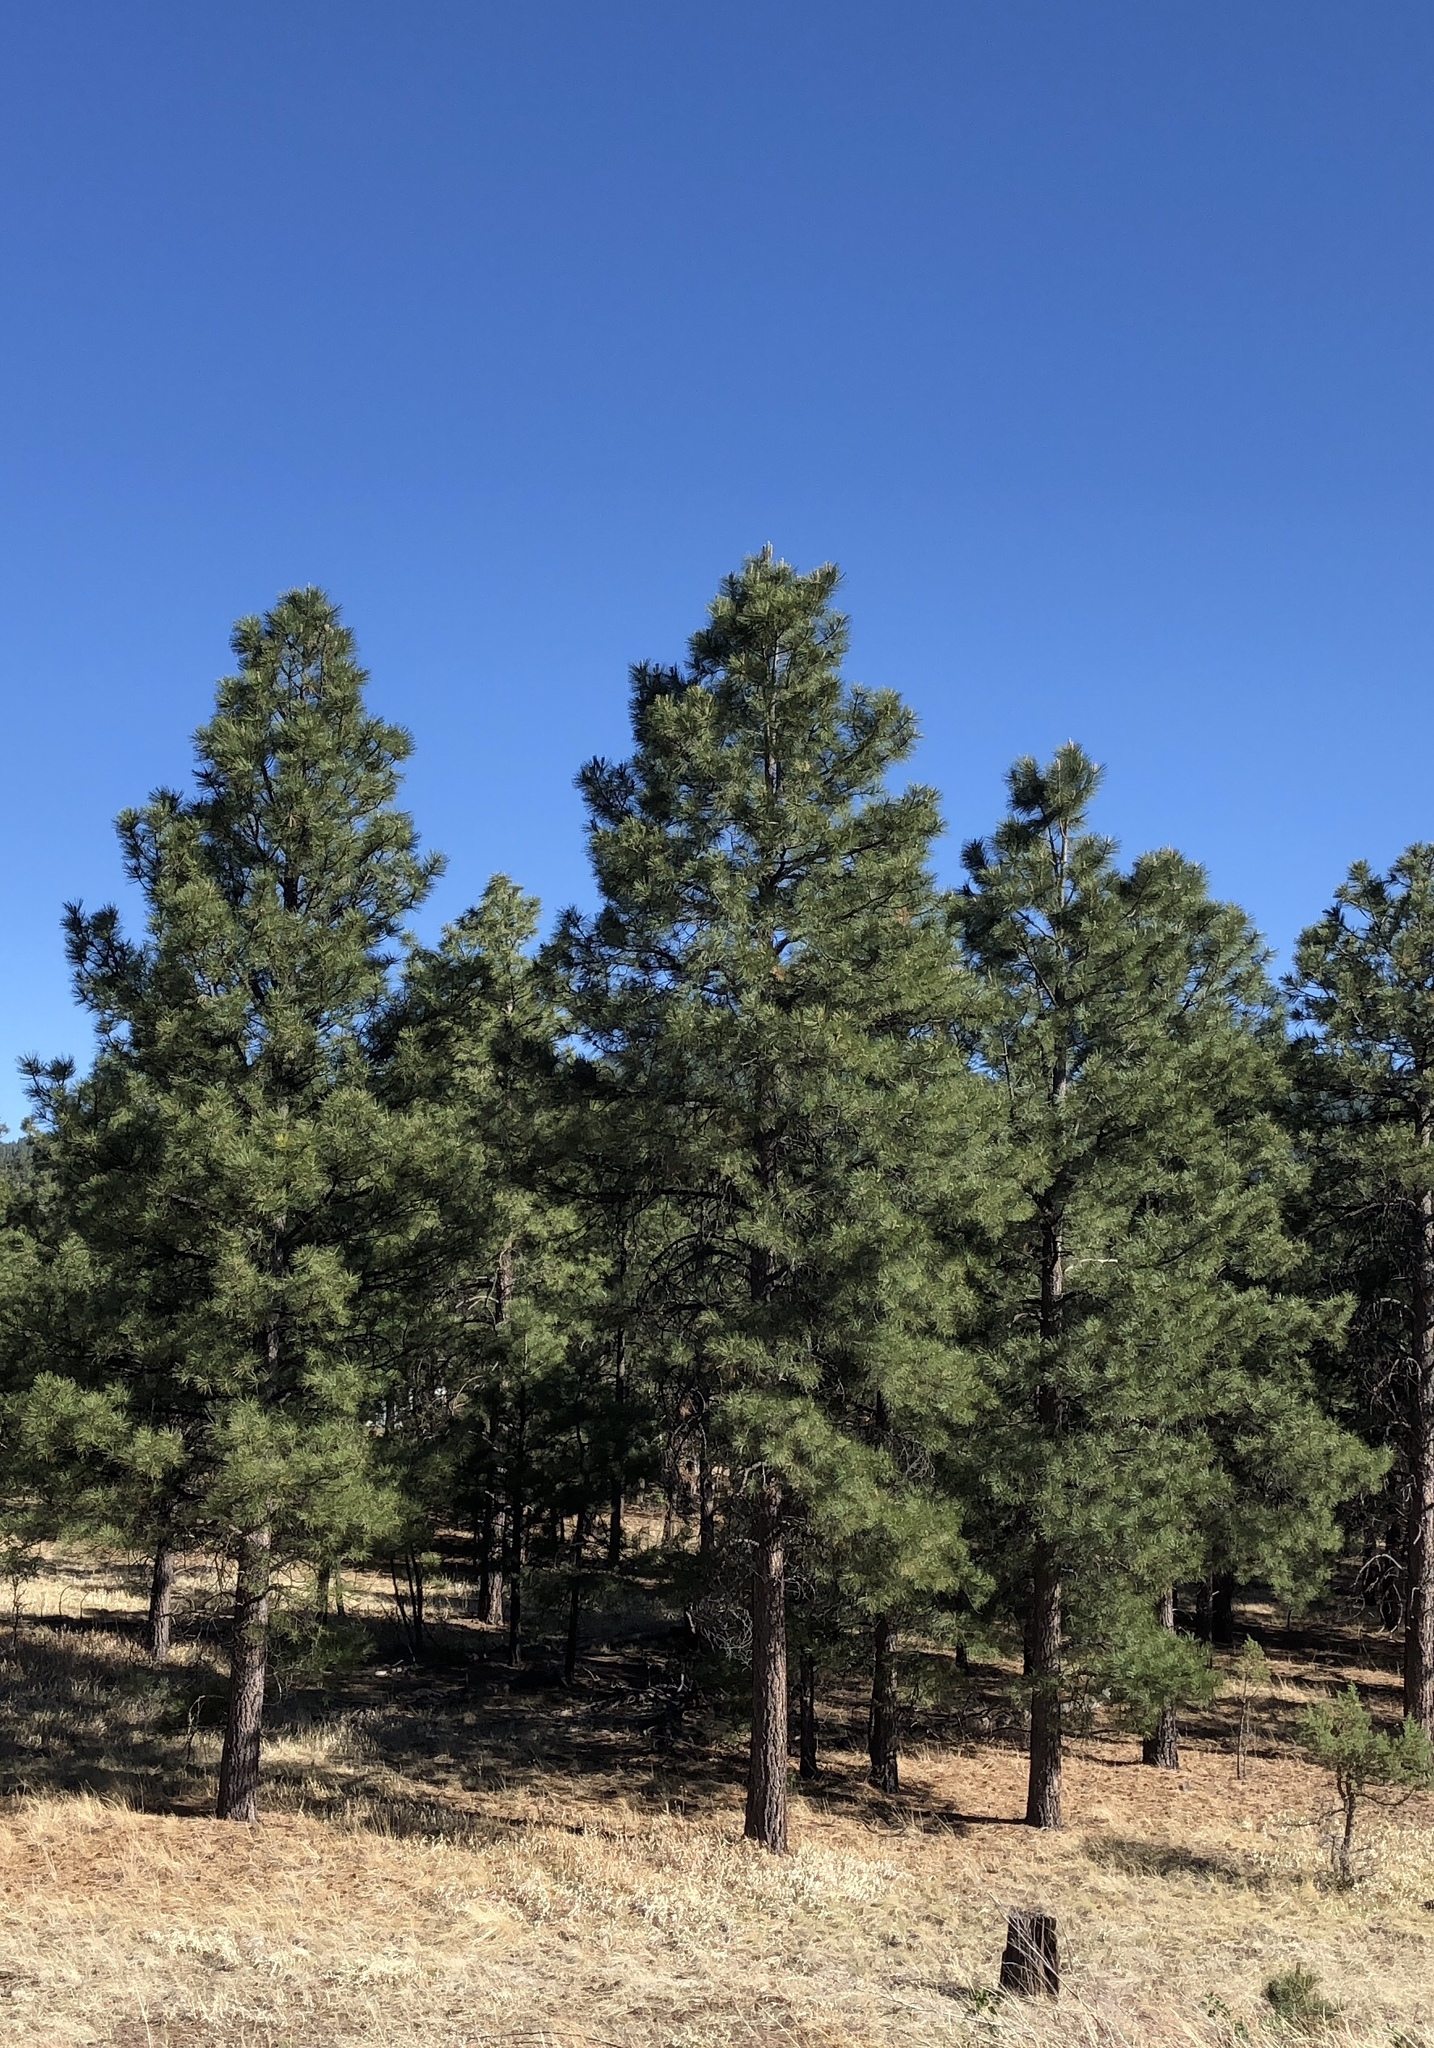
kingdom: Plantae
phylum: Tracheophyta
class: Pinopsida
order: Pinales
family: Pinaceae
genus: Pinus
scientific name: Pinus ponderosa
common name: Western yellow-pine
